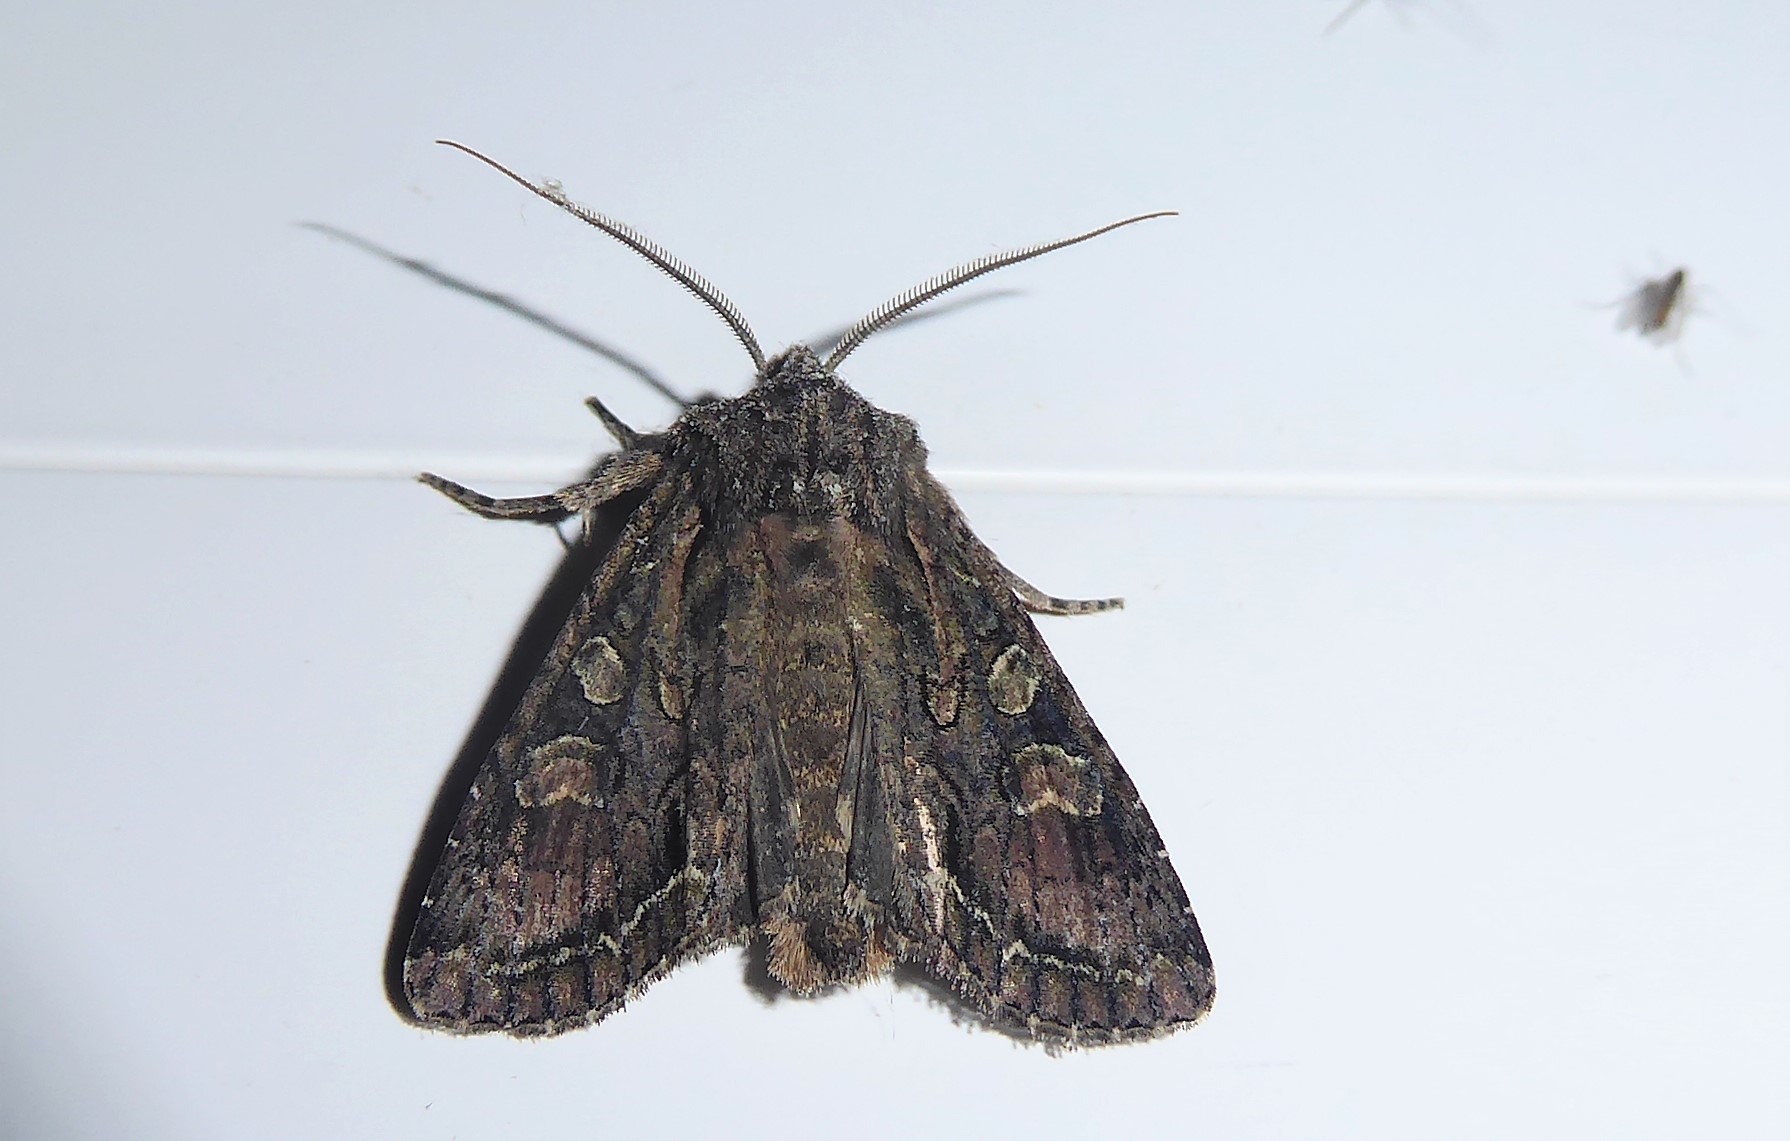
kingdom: Animalia
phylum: Arthropoda
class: Insecta
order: Lepidoptera
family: Noctuidae
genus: Ichneutica
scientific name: Ichneutica mutans
